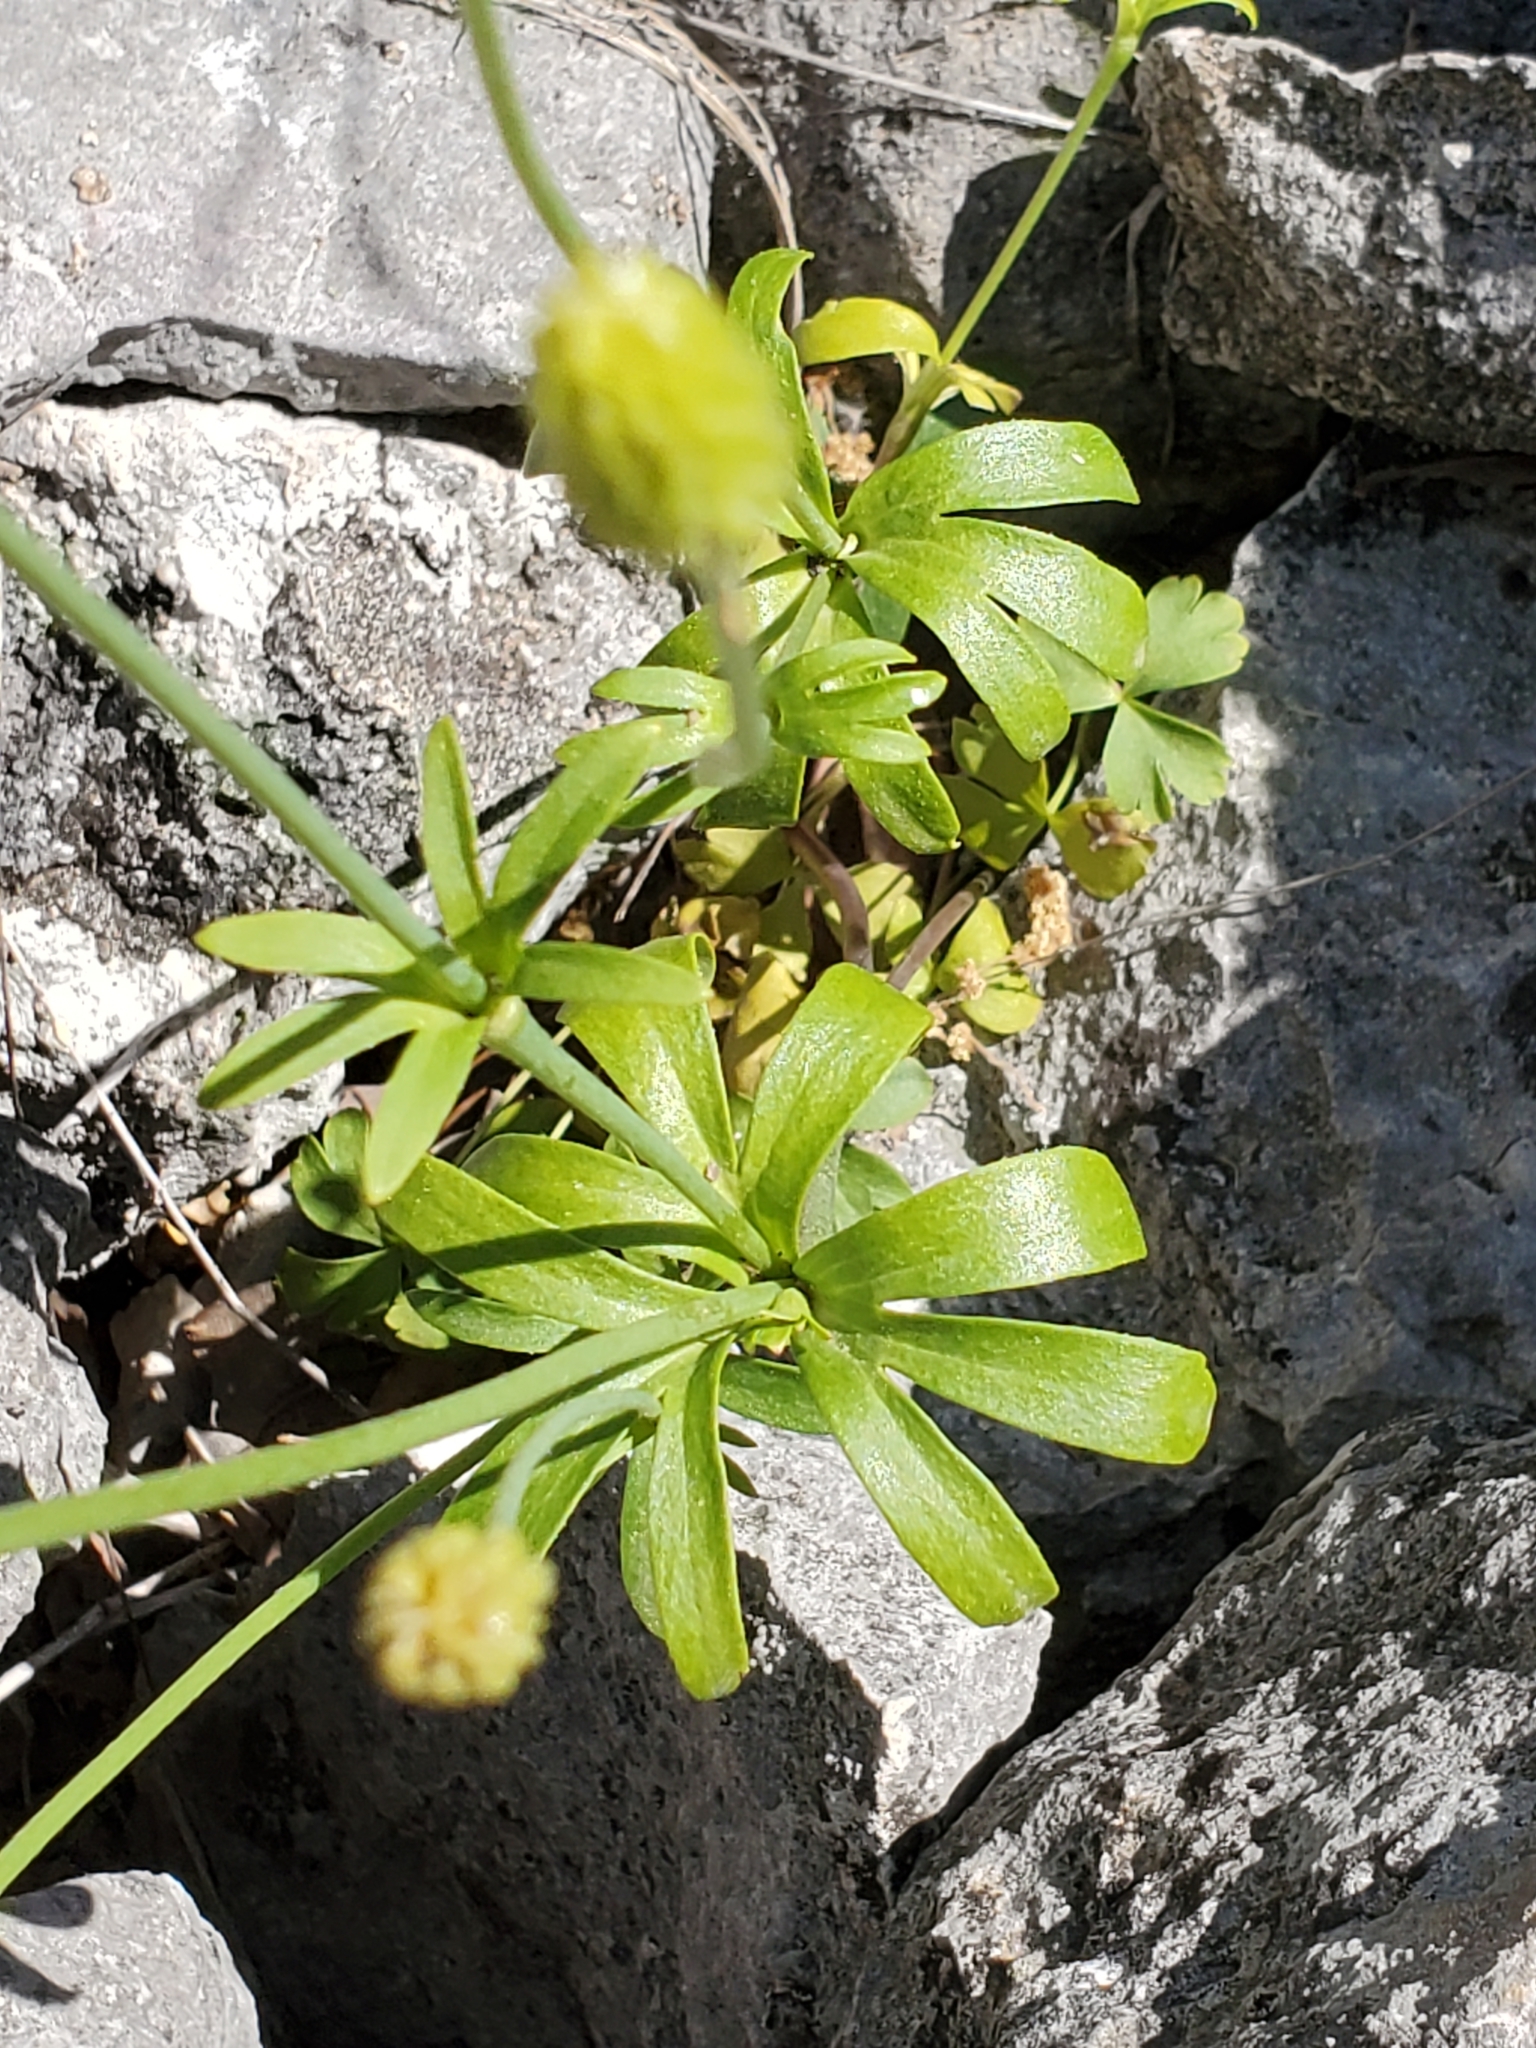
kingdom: Plantae
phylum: Tracheophyta
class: Magnoliopsida
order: Ranunculales
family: Ranunculaceae
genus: Anemone
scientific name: Anemone edwardsiana
